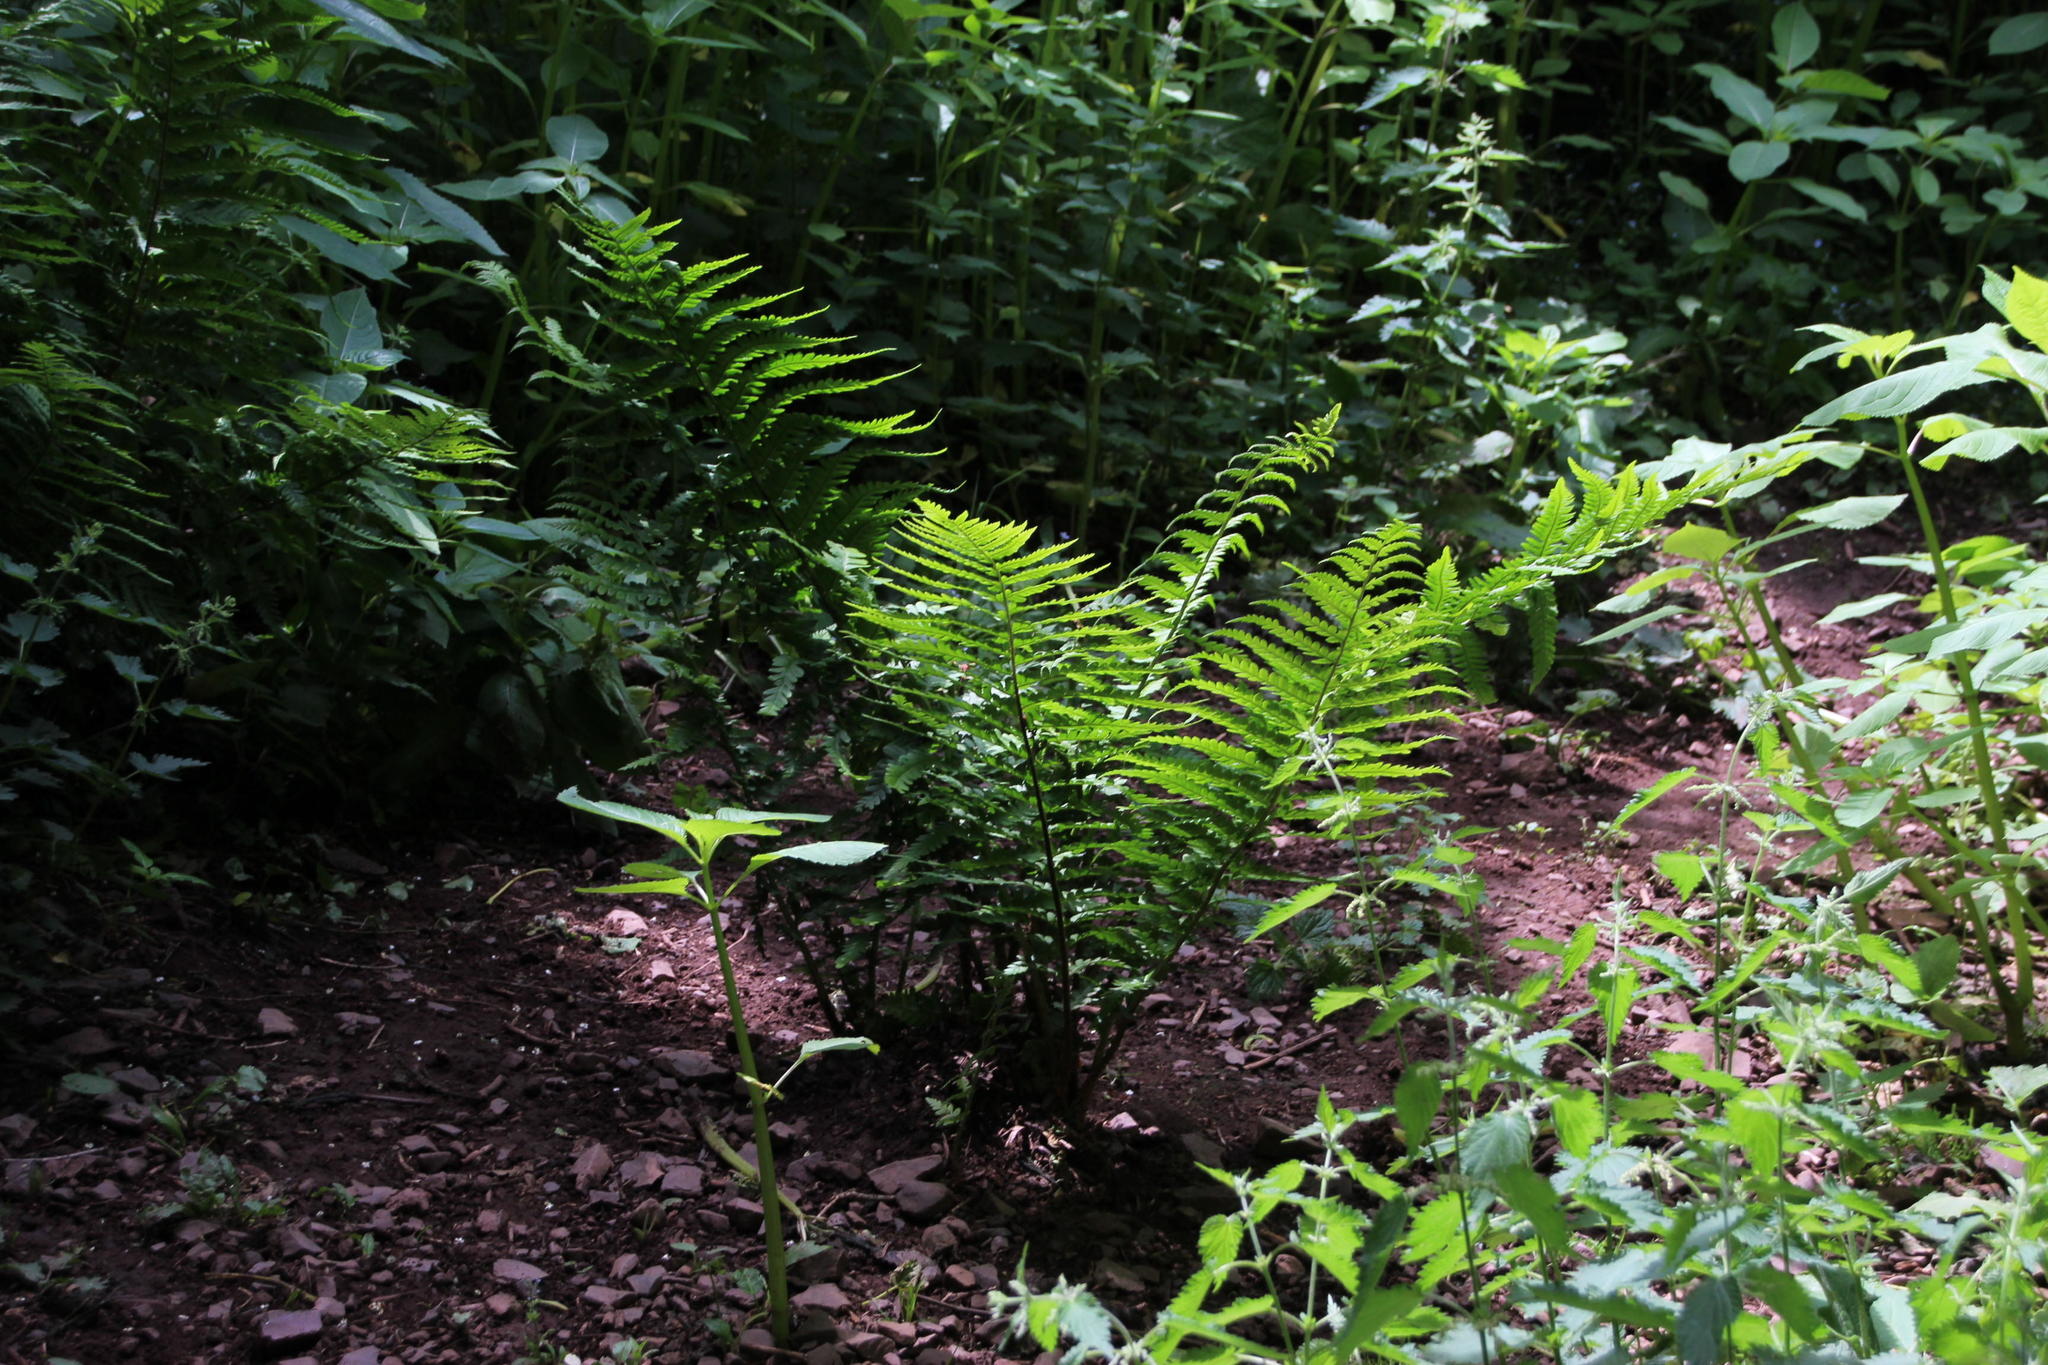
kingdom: Plantae
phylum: Tracheophyta
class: Polypodiopsida
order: Polypodiales
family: Dryopteridaceae
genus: Dryopteris
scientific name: Dryopteris filix-mas
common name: Male fern
